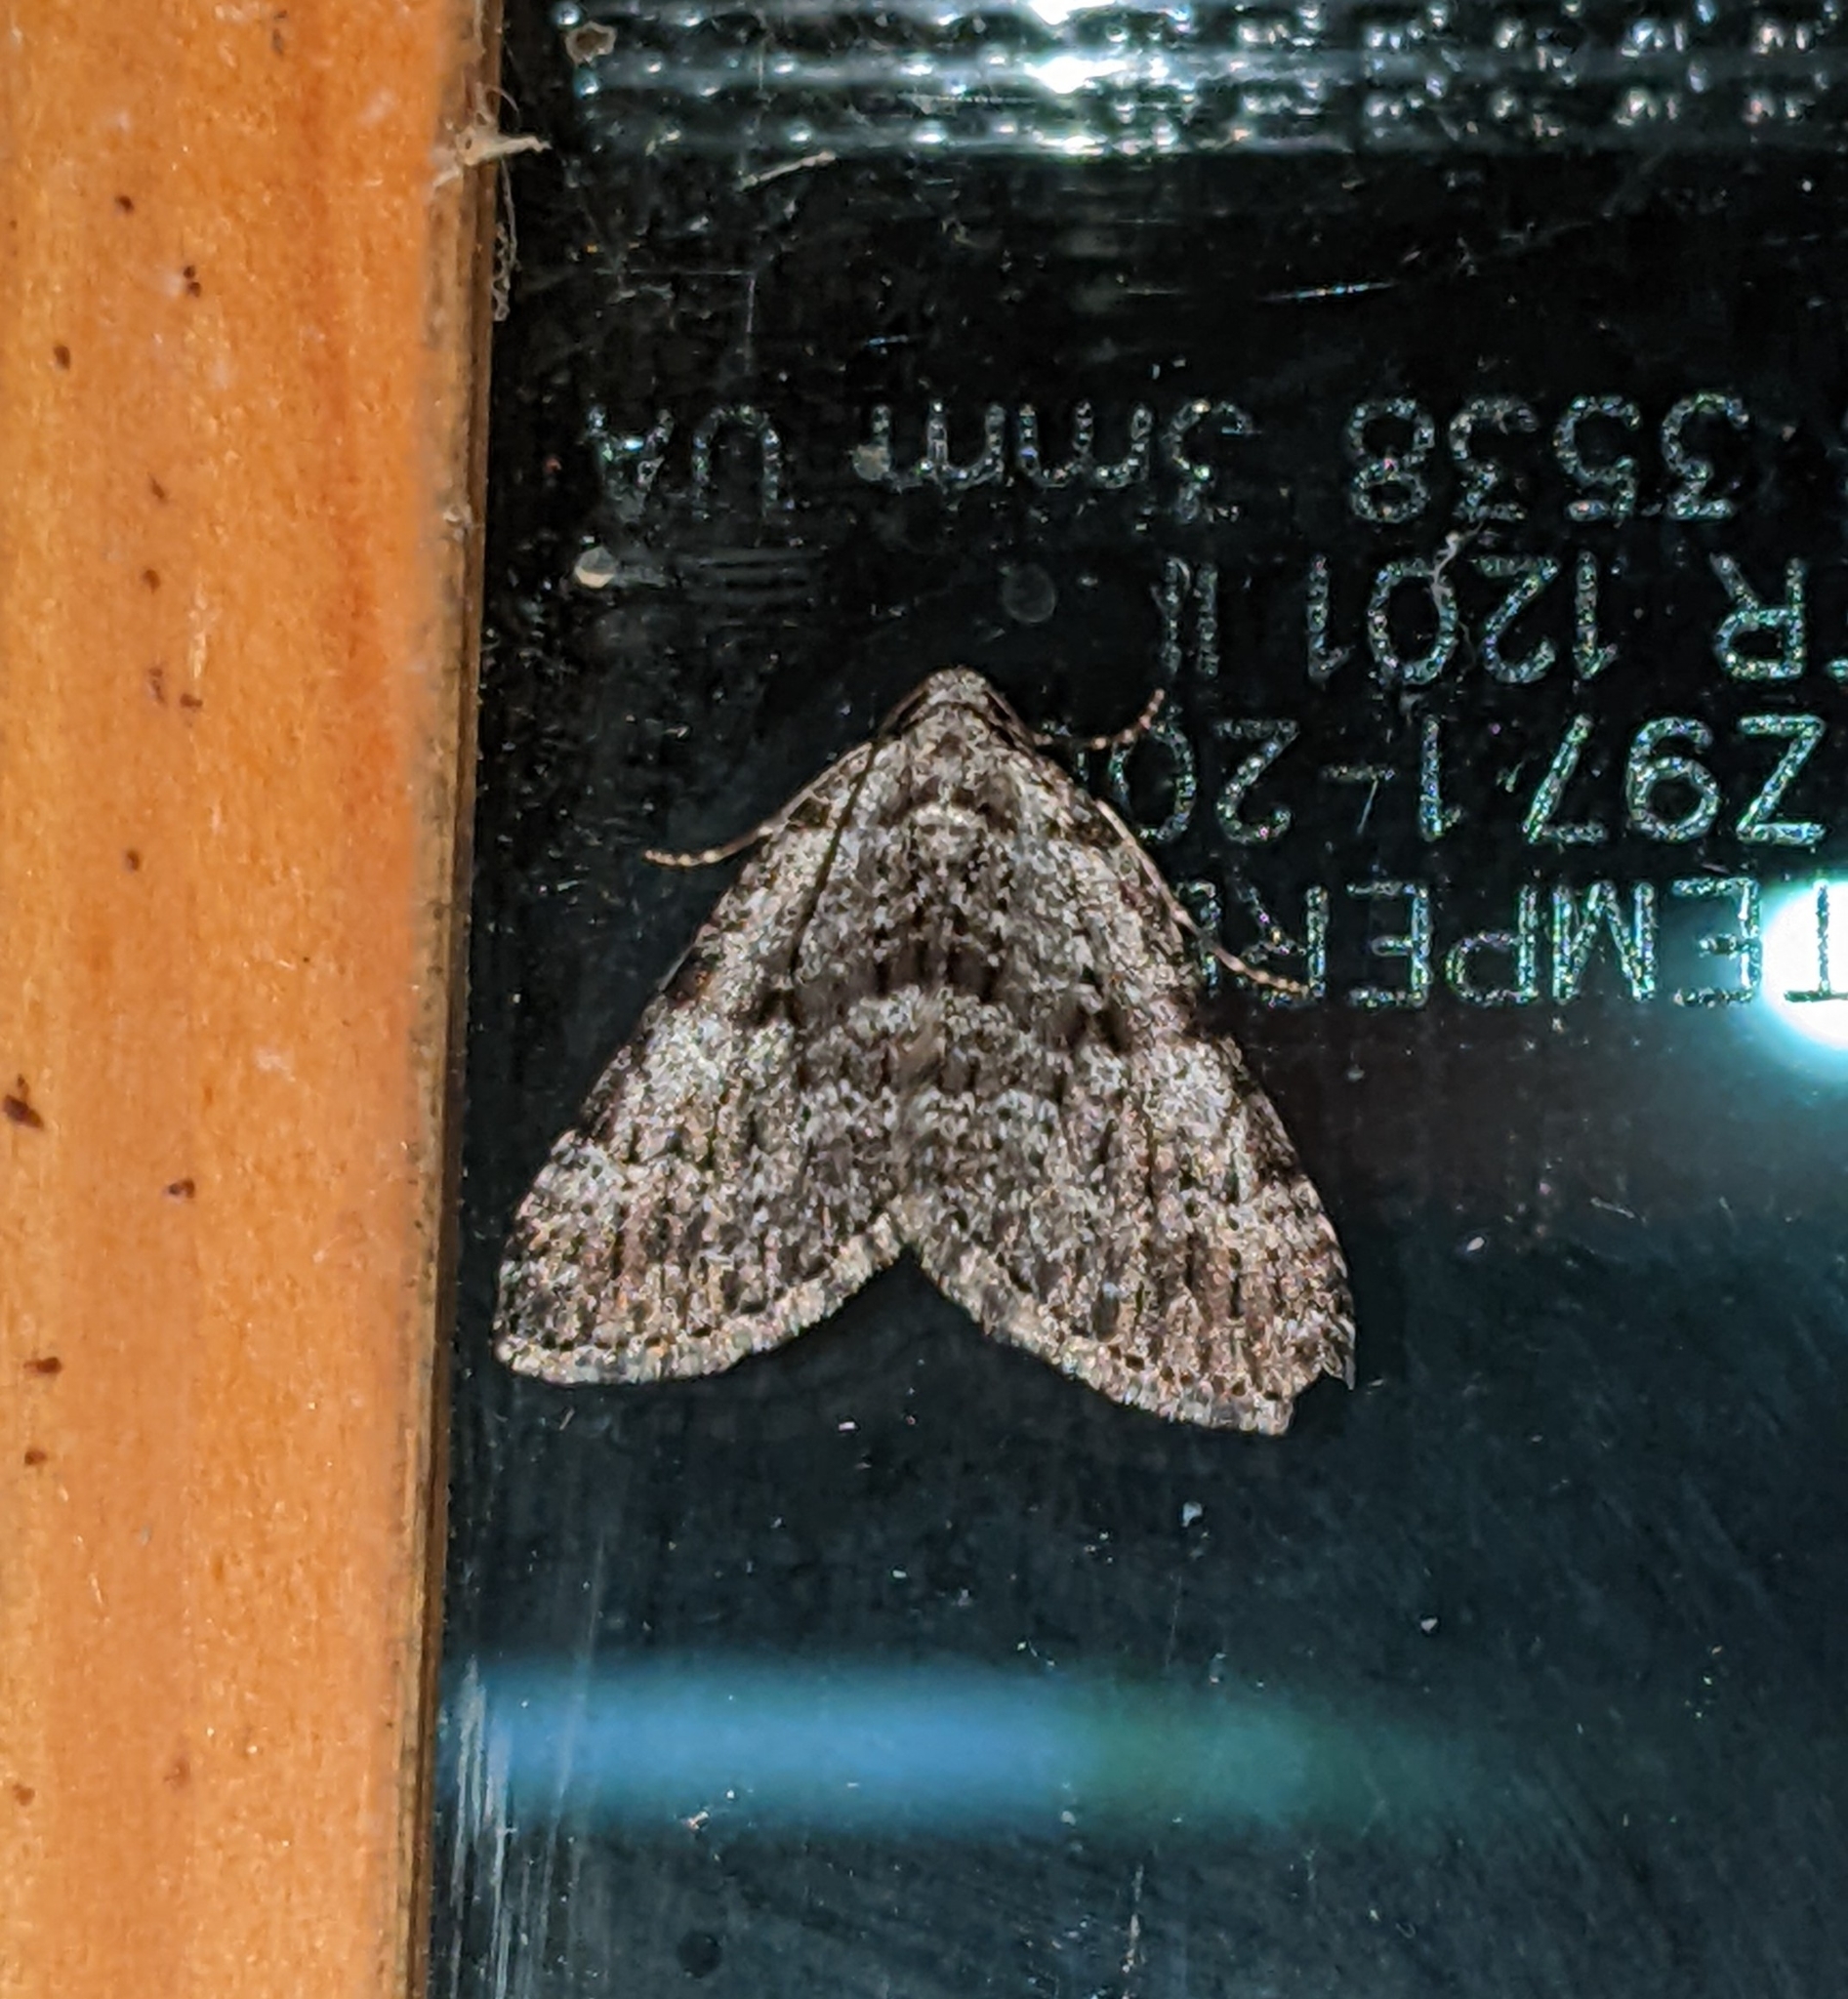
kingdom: Animalia
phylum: Arthropoda
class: Insecta
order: Lepidoptera
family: Geometridae
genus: Perizoma
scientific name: Perizoma curvilinea
